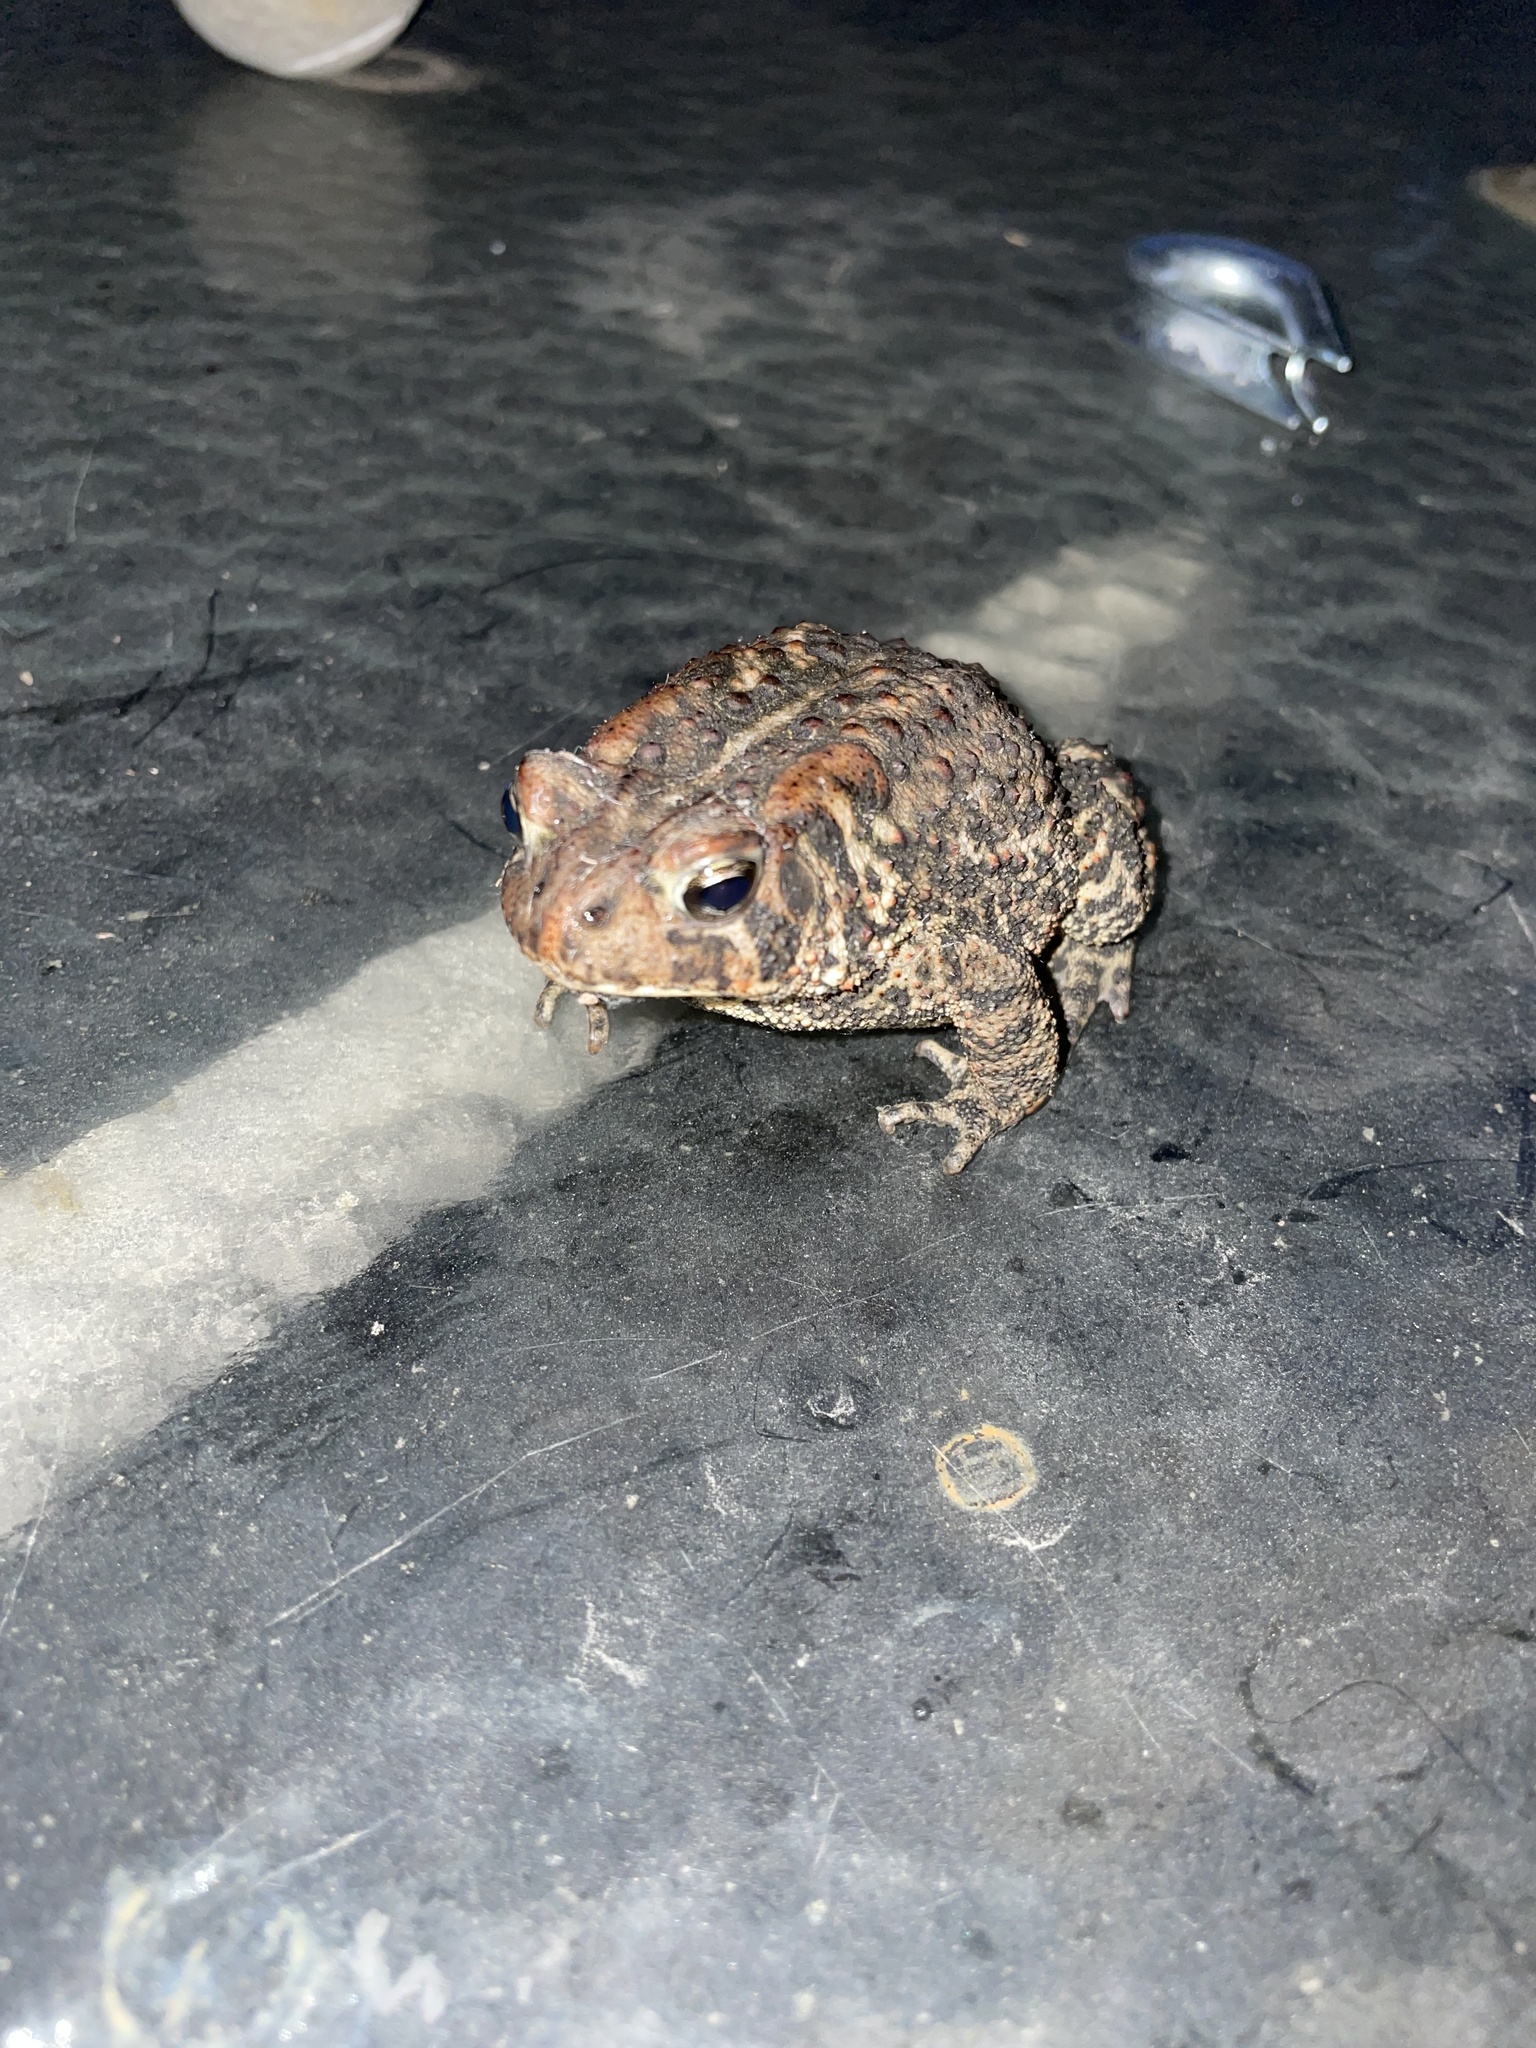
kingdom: Animalia
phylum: Chordata
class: Amphibia
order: Anura
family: Bufonidae
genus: Anaxyrus
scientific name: Anaxyrus americanus
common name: American toad
